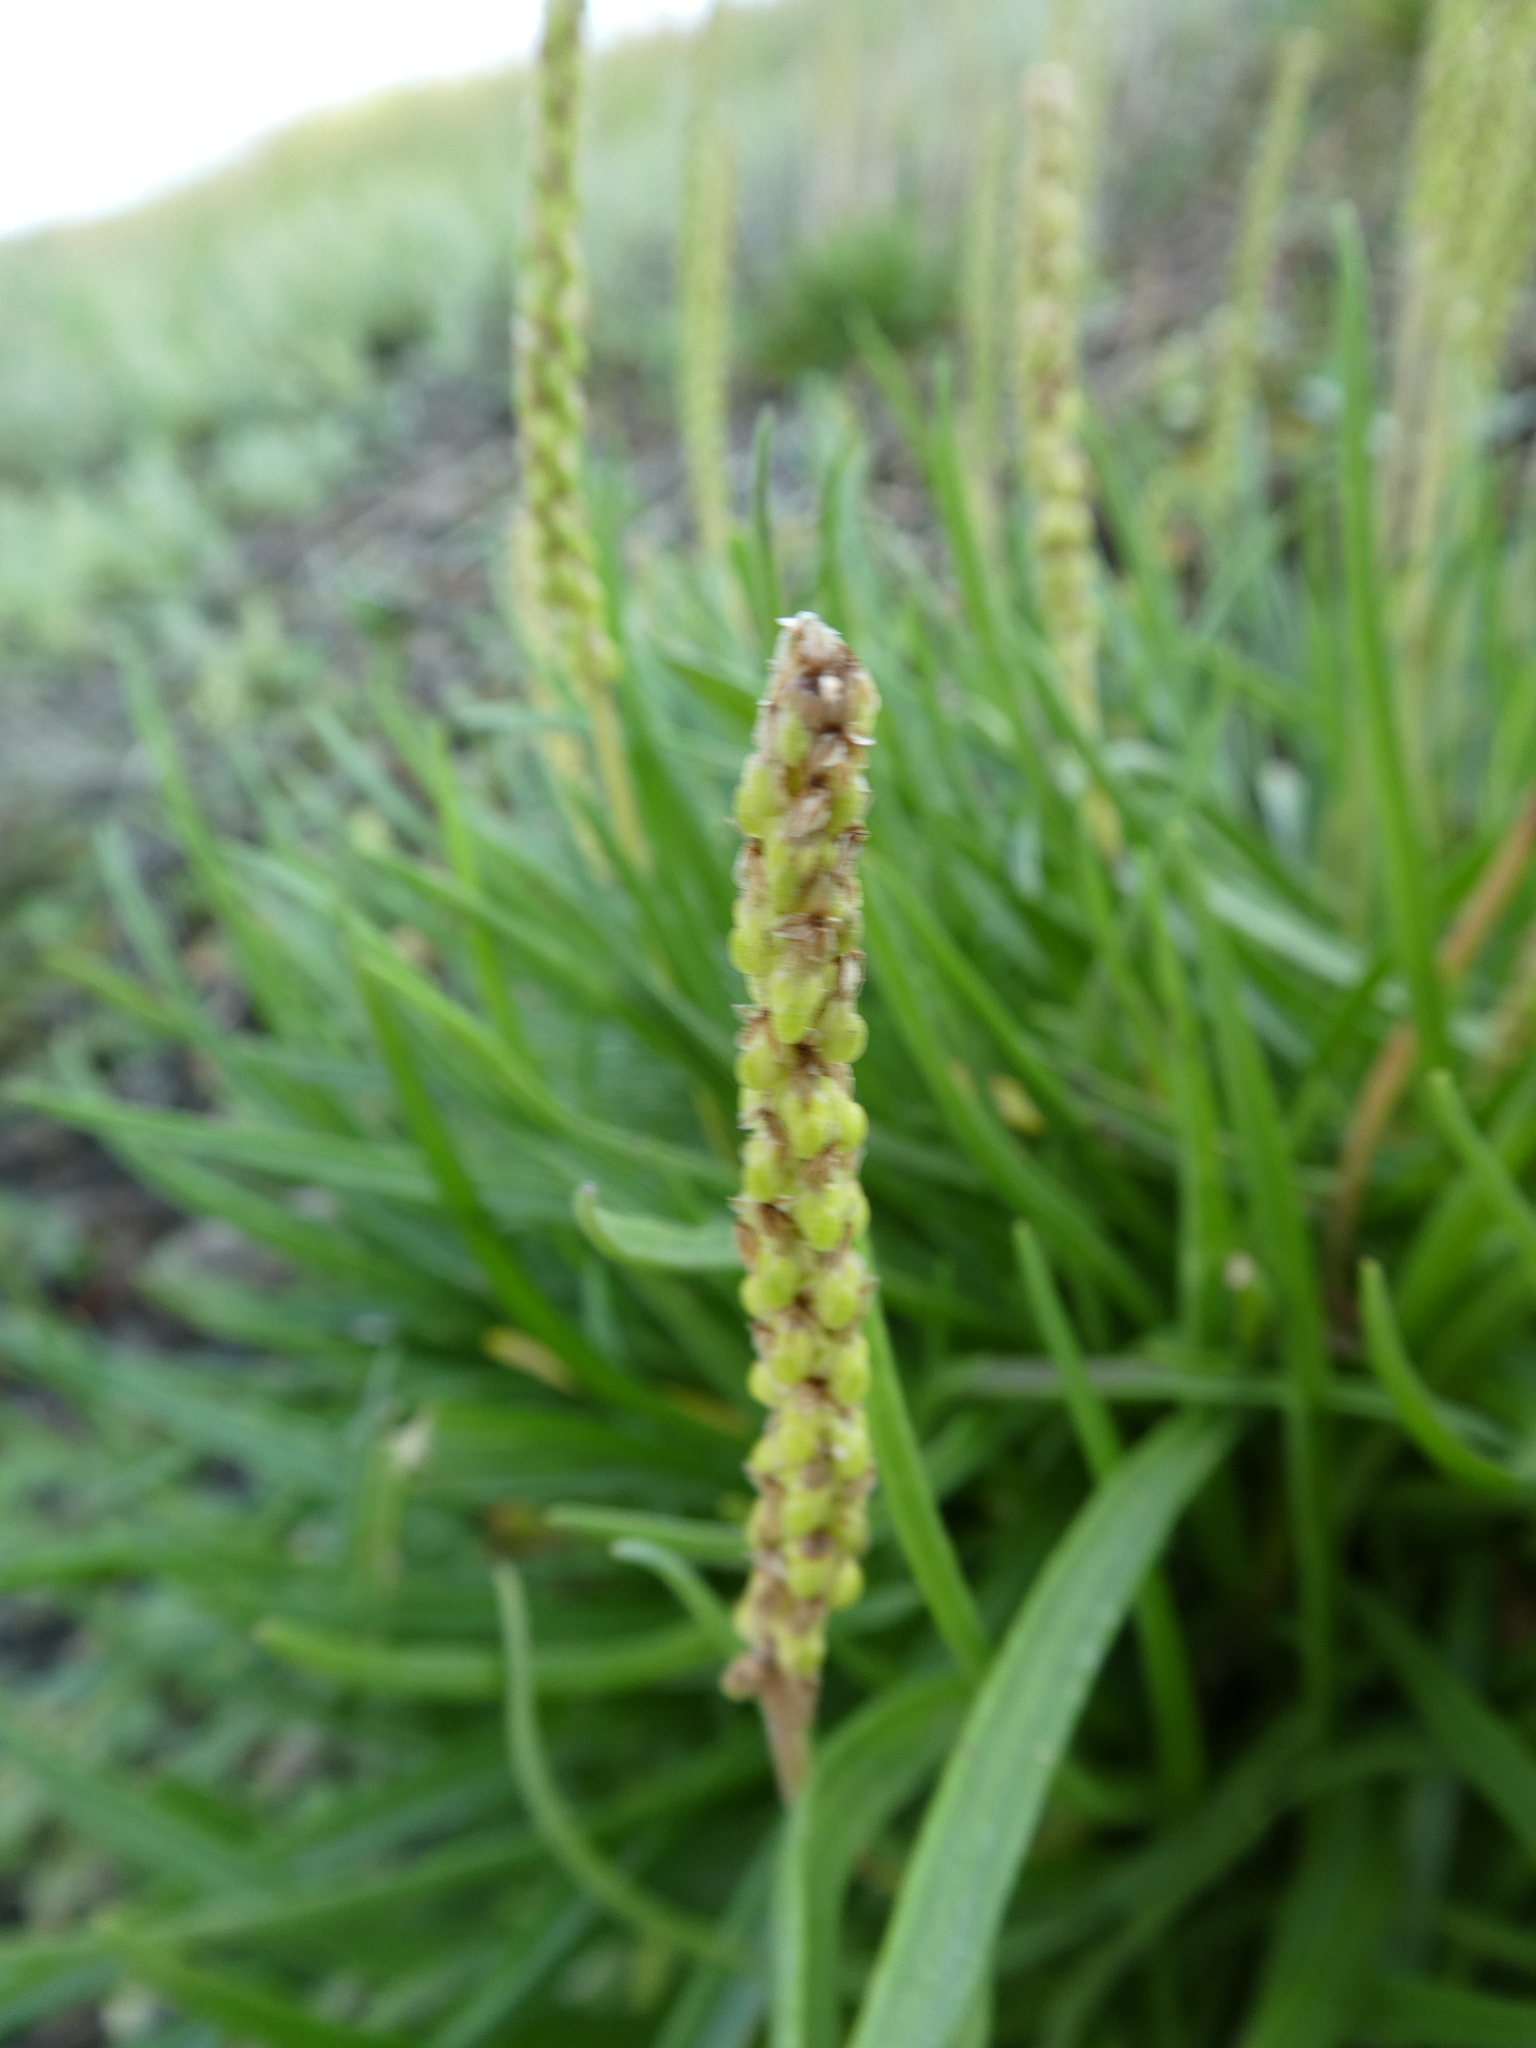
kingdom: Plantae
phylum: Tracheophyta
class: Magnoliopsida
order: Lamiales
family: Plantaginaceae
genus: Plantago
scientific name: Plantago maritima
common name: Sea plantain
